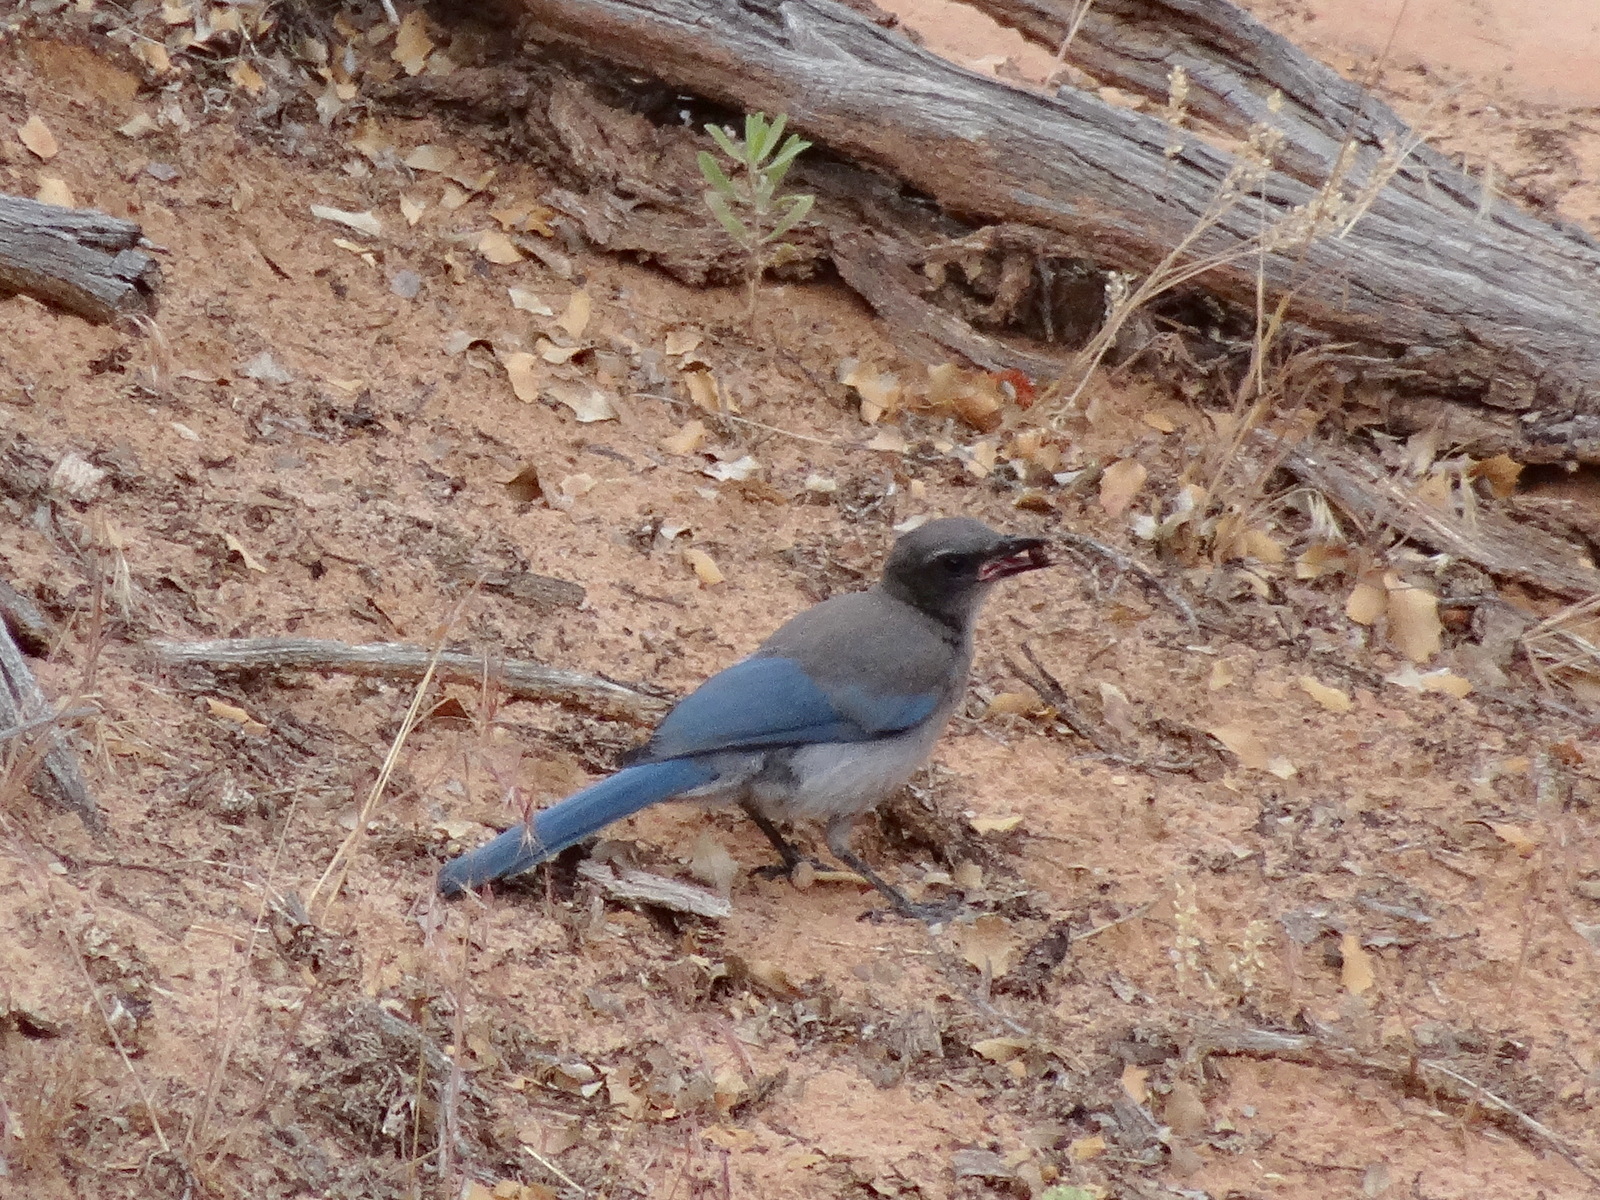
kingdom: Animalia
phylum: Chordata
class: Aves
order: Passeriformes
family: Corvidae
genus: Aphelocoma
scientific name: Aphelocoma woodhouseii
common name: Woodhouse's scrub-jay
